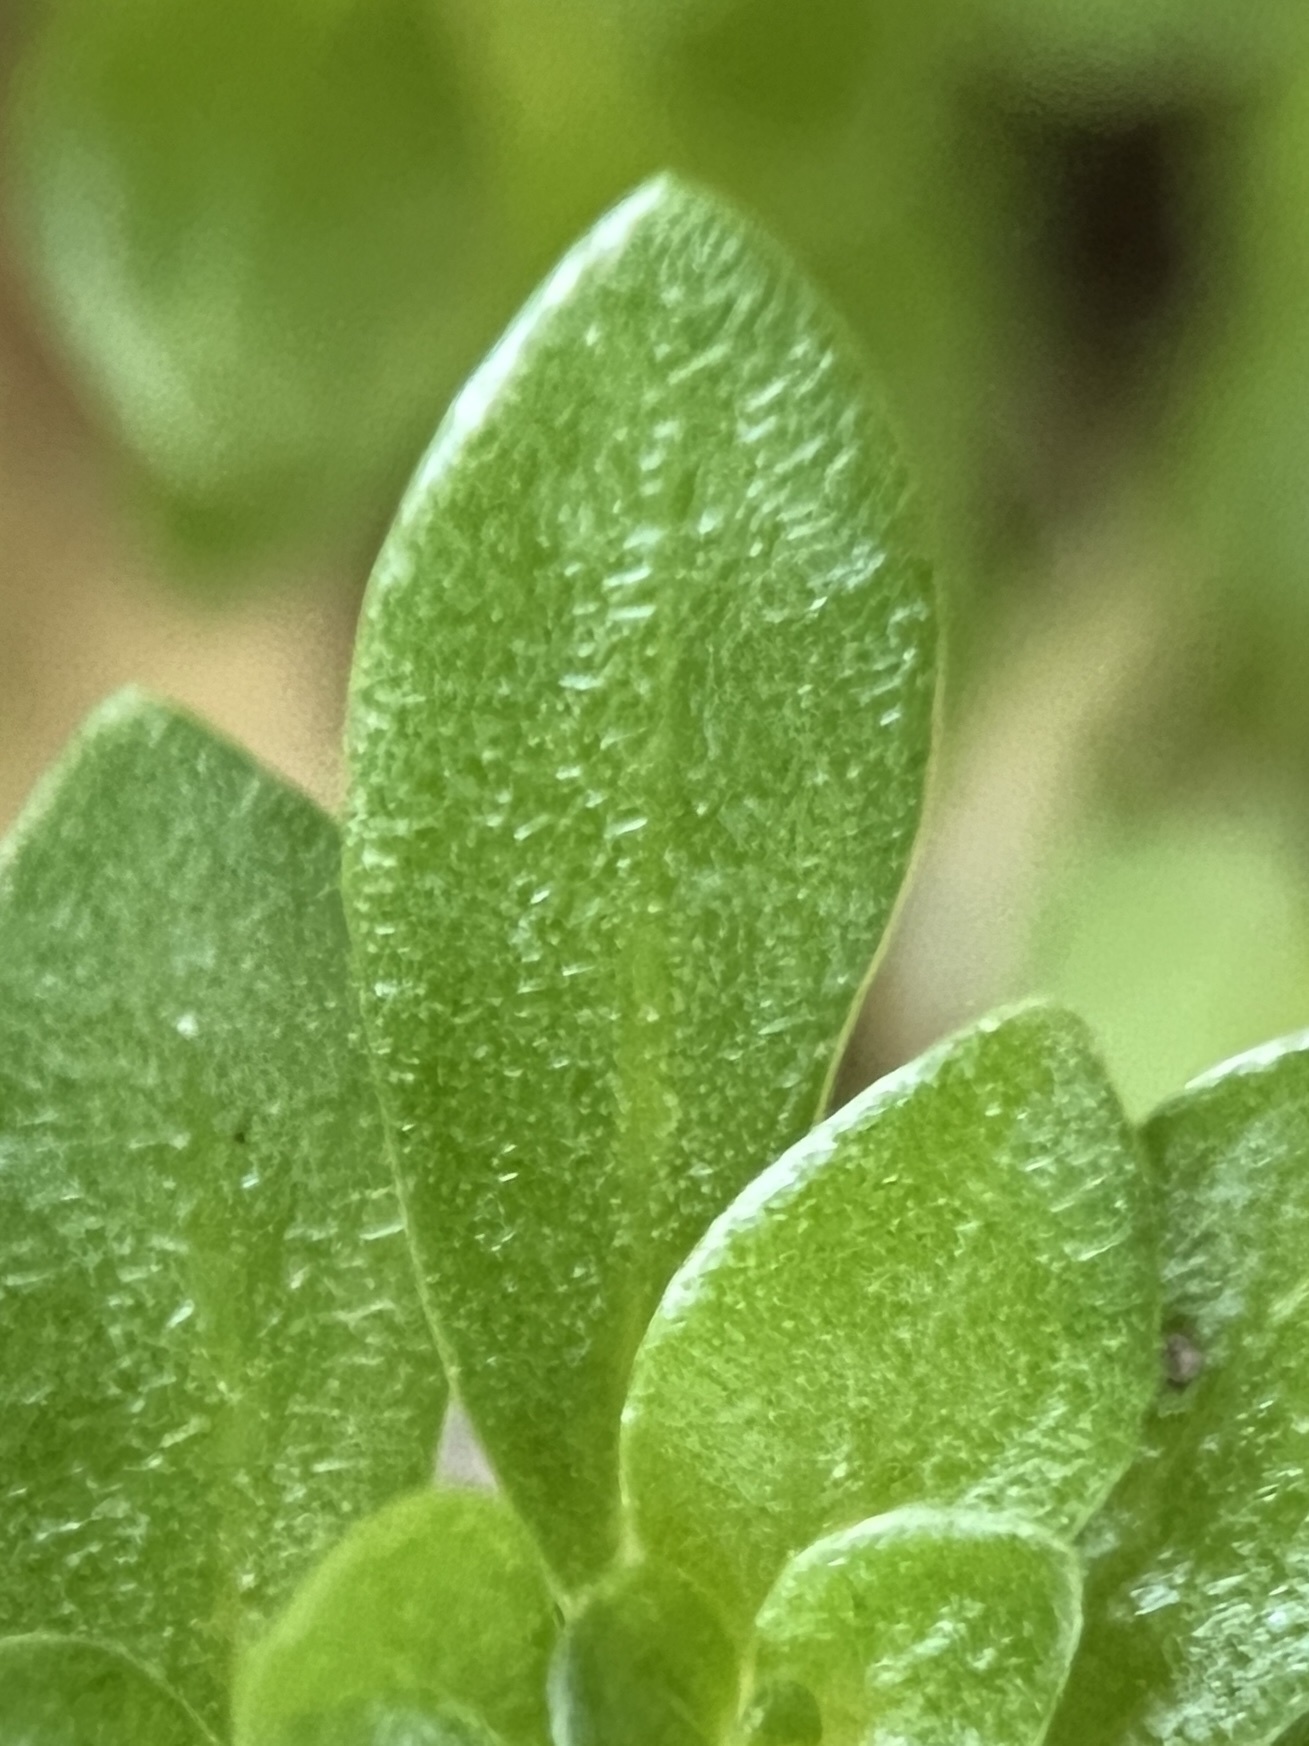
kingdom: Plantae
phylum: Tracheophyta
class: Magnoliopsida
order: Rosales
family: Urticaceae
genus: Pilea
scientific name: Pilea microphylla
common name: Artillery-plant
